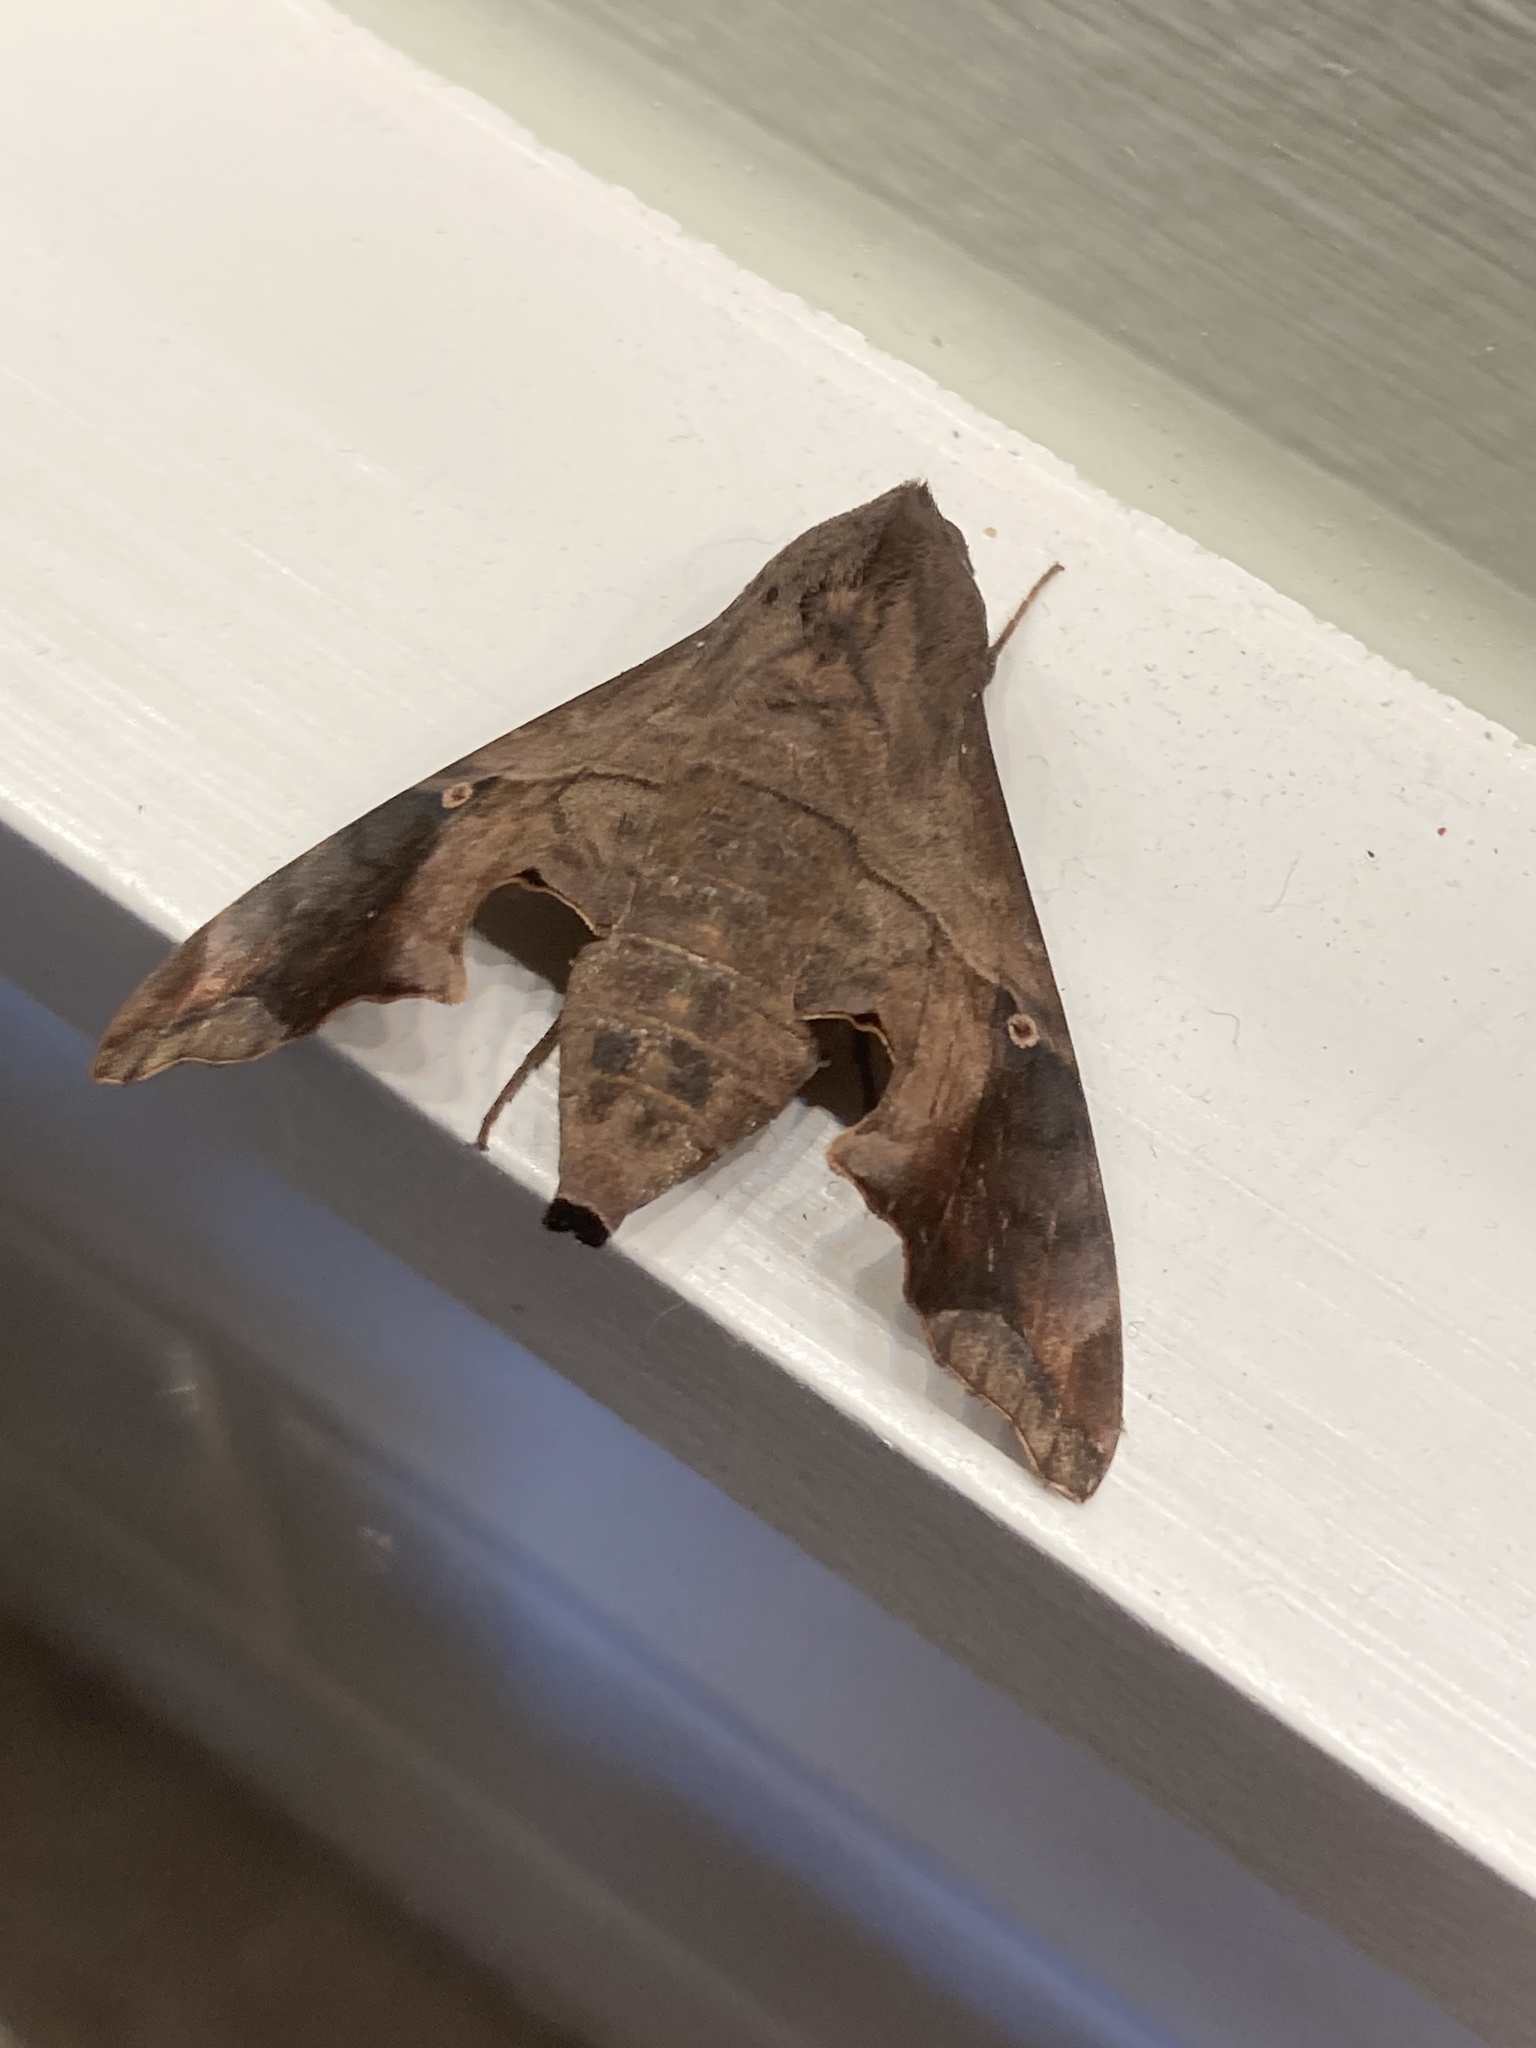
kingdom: Animalia
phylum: Arthropoda
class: Insecta
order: Lepidoptera
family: Sphingidae
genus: Enyo
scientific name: Enyo lugubris
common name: Mournful sphinx
